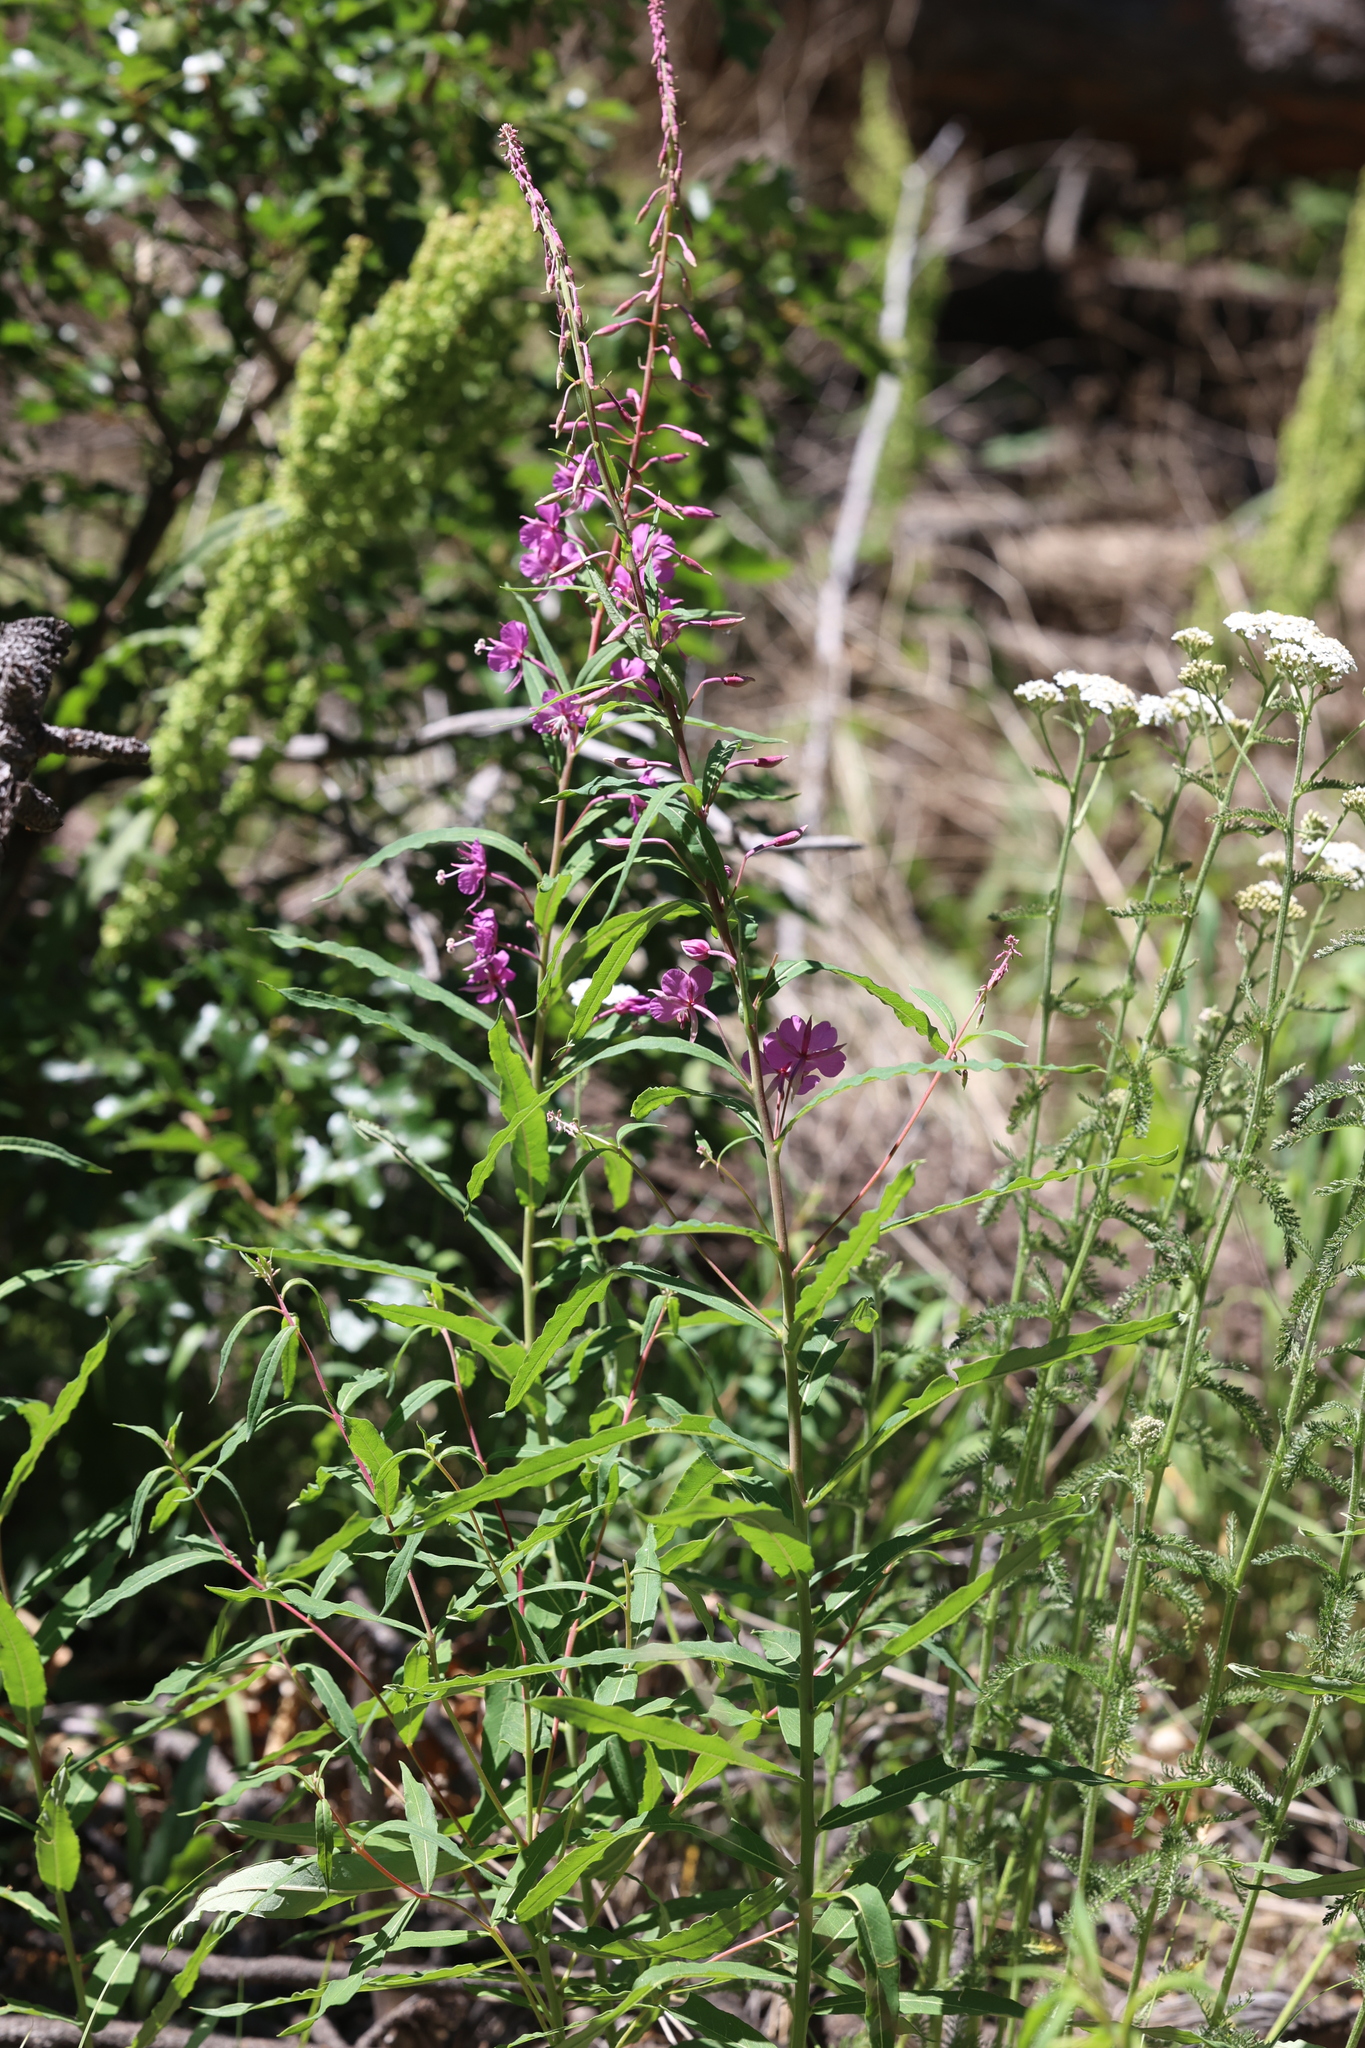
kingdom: Plantae
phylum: Tracheophyta
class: Magnoliopsida
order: Myrtales
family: Onagraceae
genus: Chamaenerion
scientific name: Chamaenerion angustifolium
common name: Fireweed
